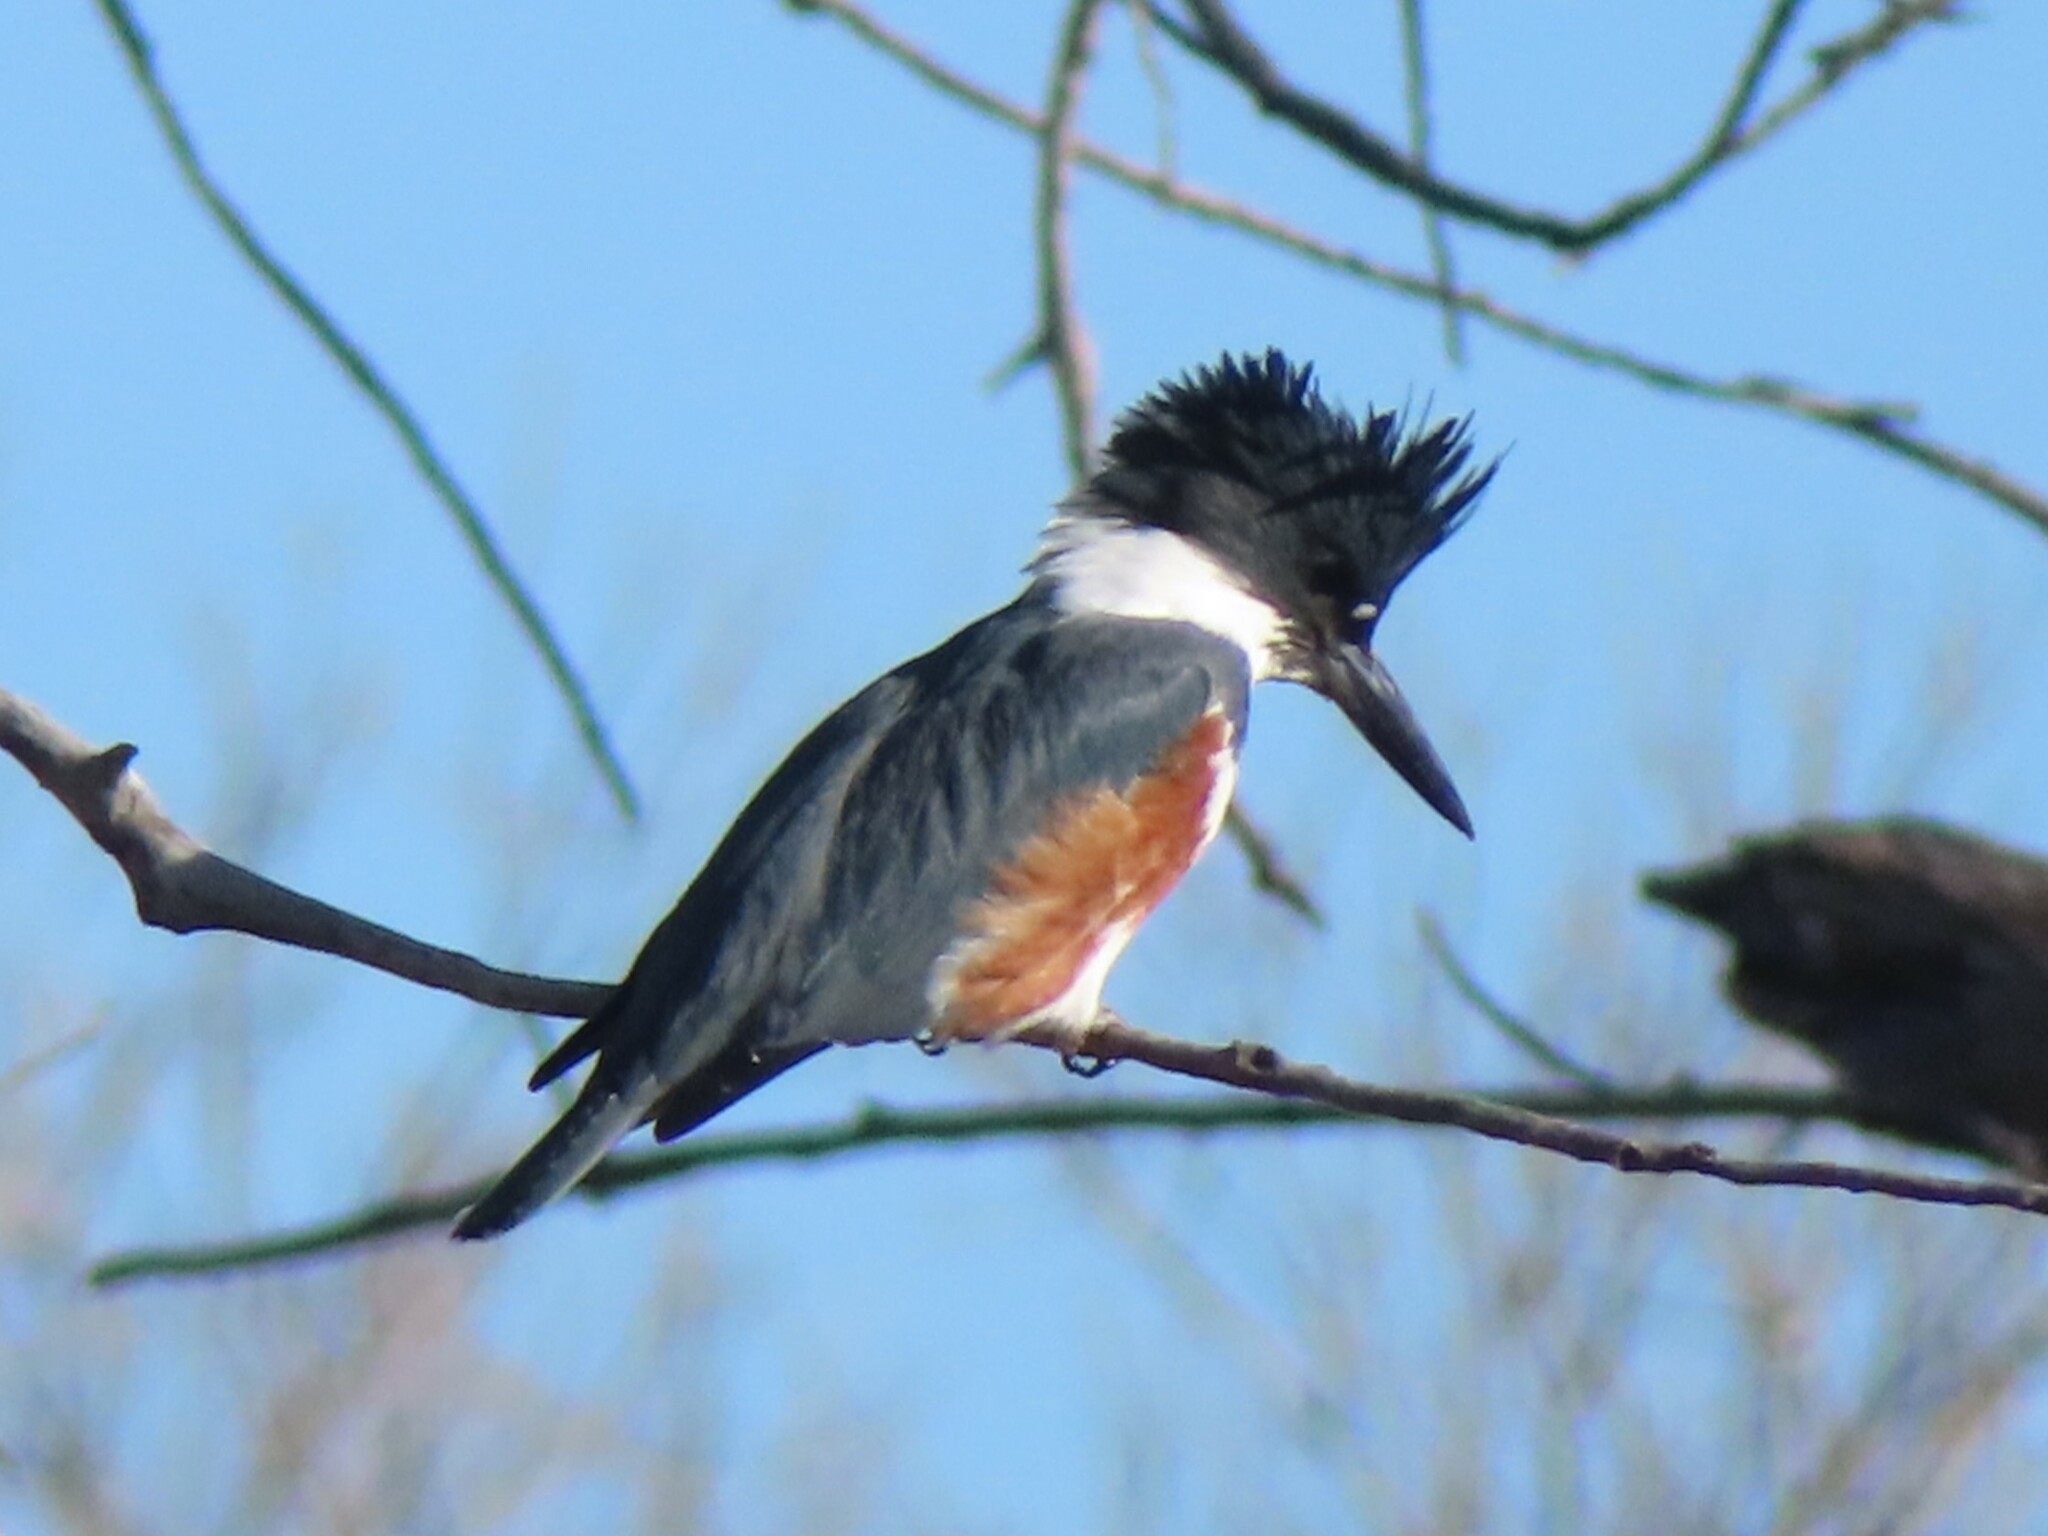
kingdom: Animalia
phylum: Chordata
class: Aves
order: Coraciiformes
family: Alcedinidae
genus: Megaceryle
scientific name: Megaceryle alcyon
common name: Belted kingfisher
